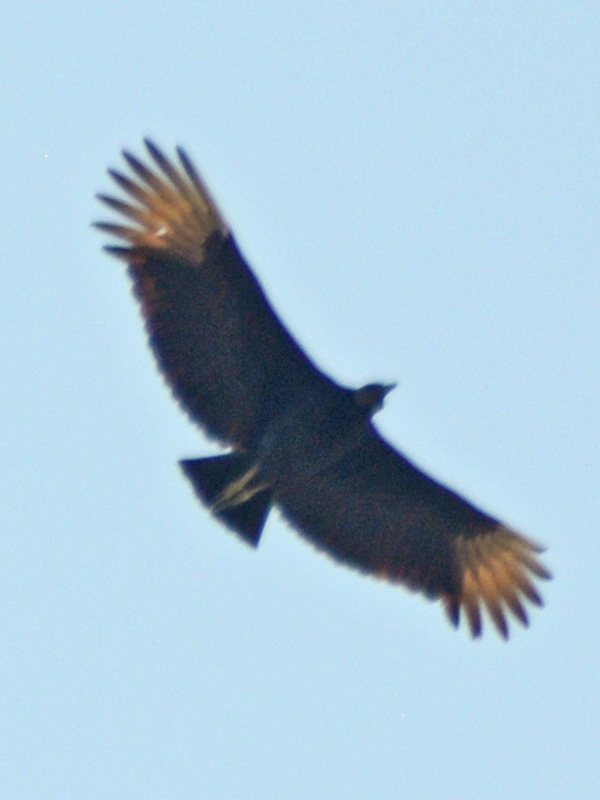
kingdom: Animalia
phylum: Chordata
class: Aves
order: Accipitriformes
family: Cathartidae
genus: Coragyps
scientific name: Coragyps atratus
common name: Black vulture
